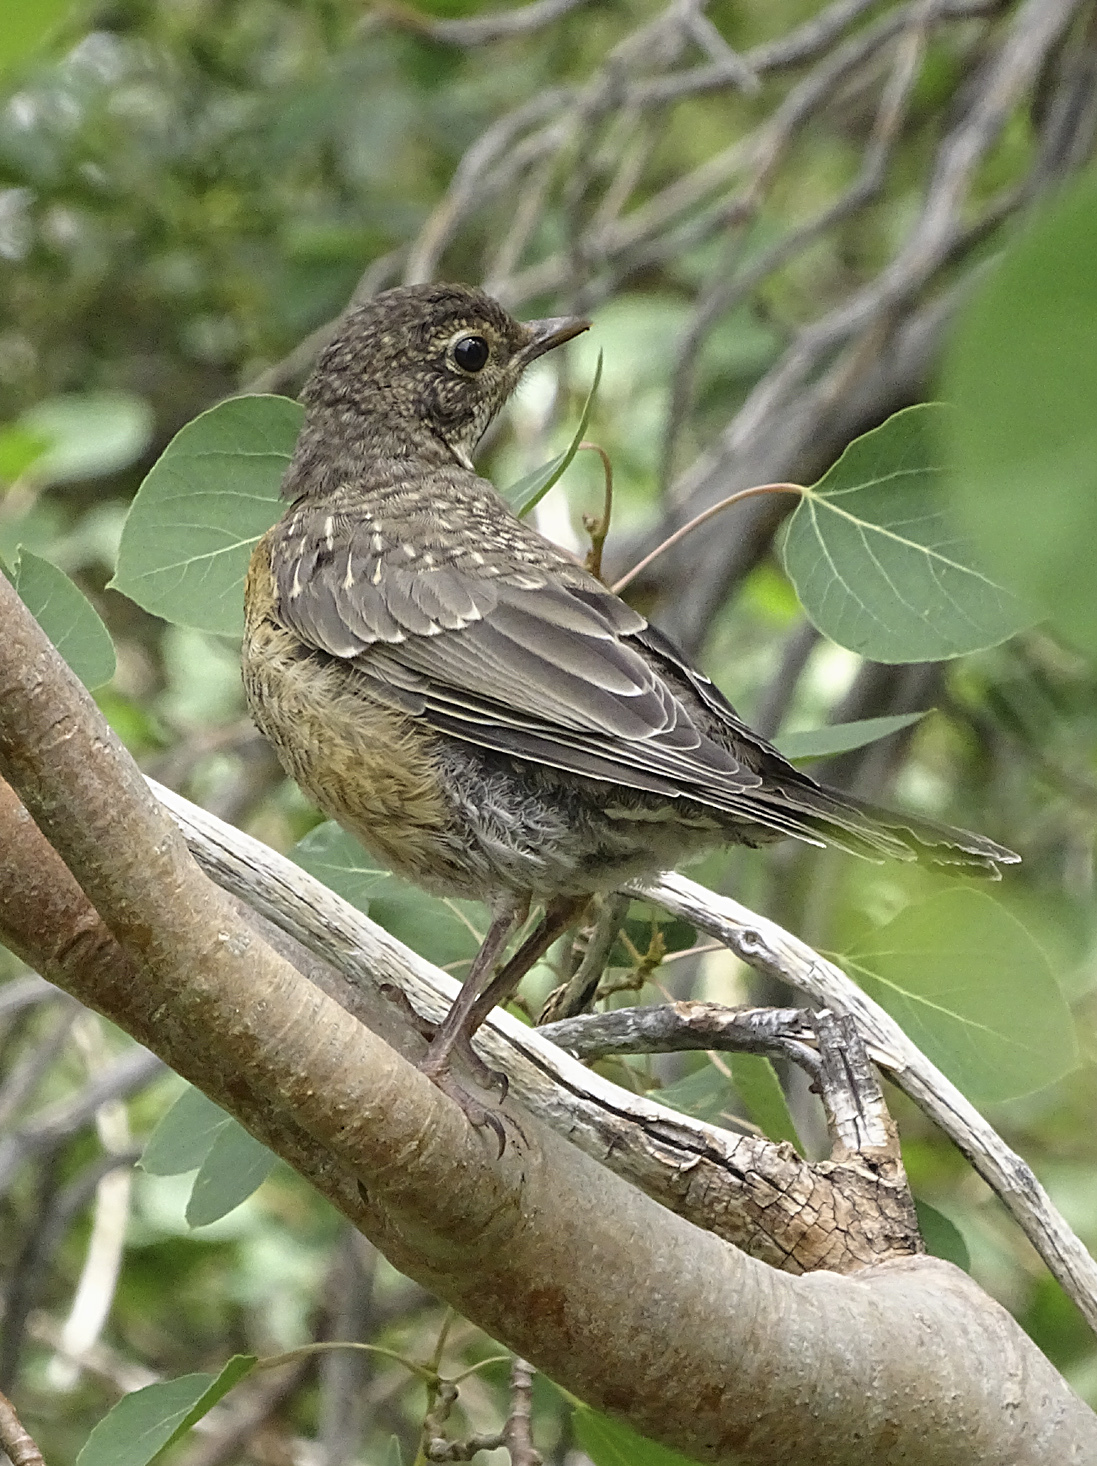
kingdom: Animalia
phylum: Chordata
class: Aves
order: Passeriformes
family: Turdidae
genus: Turdus
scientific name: Turdus migratorius
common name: American robin
